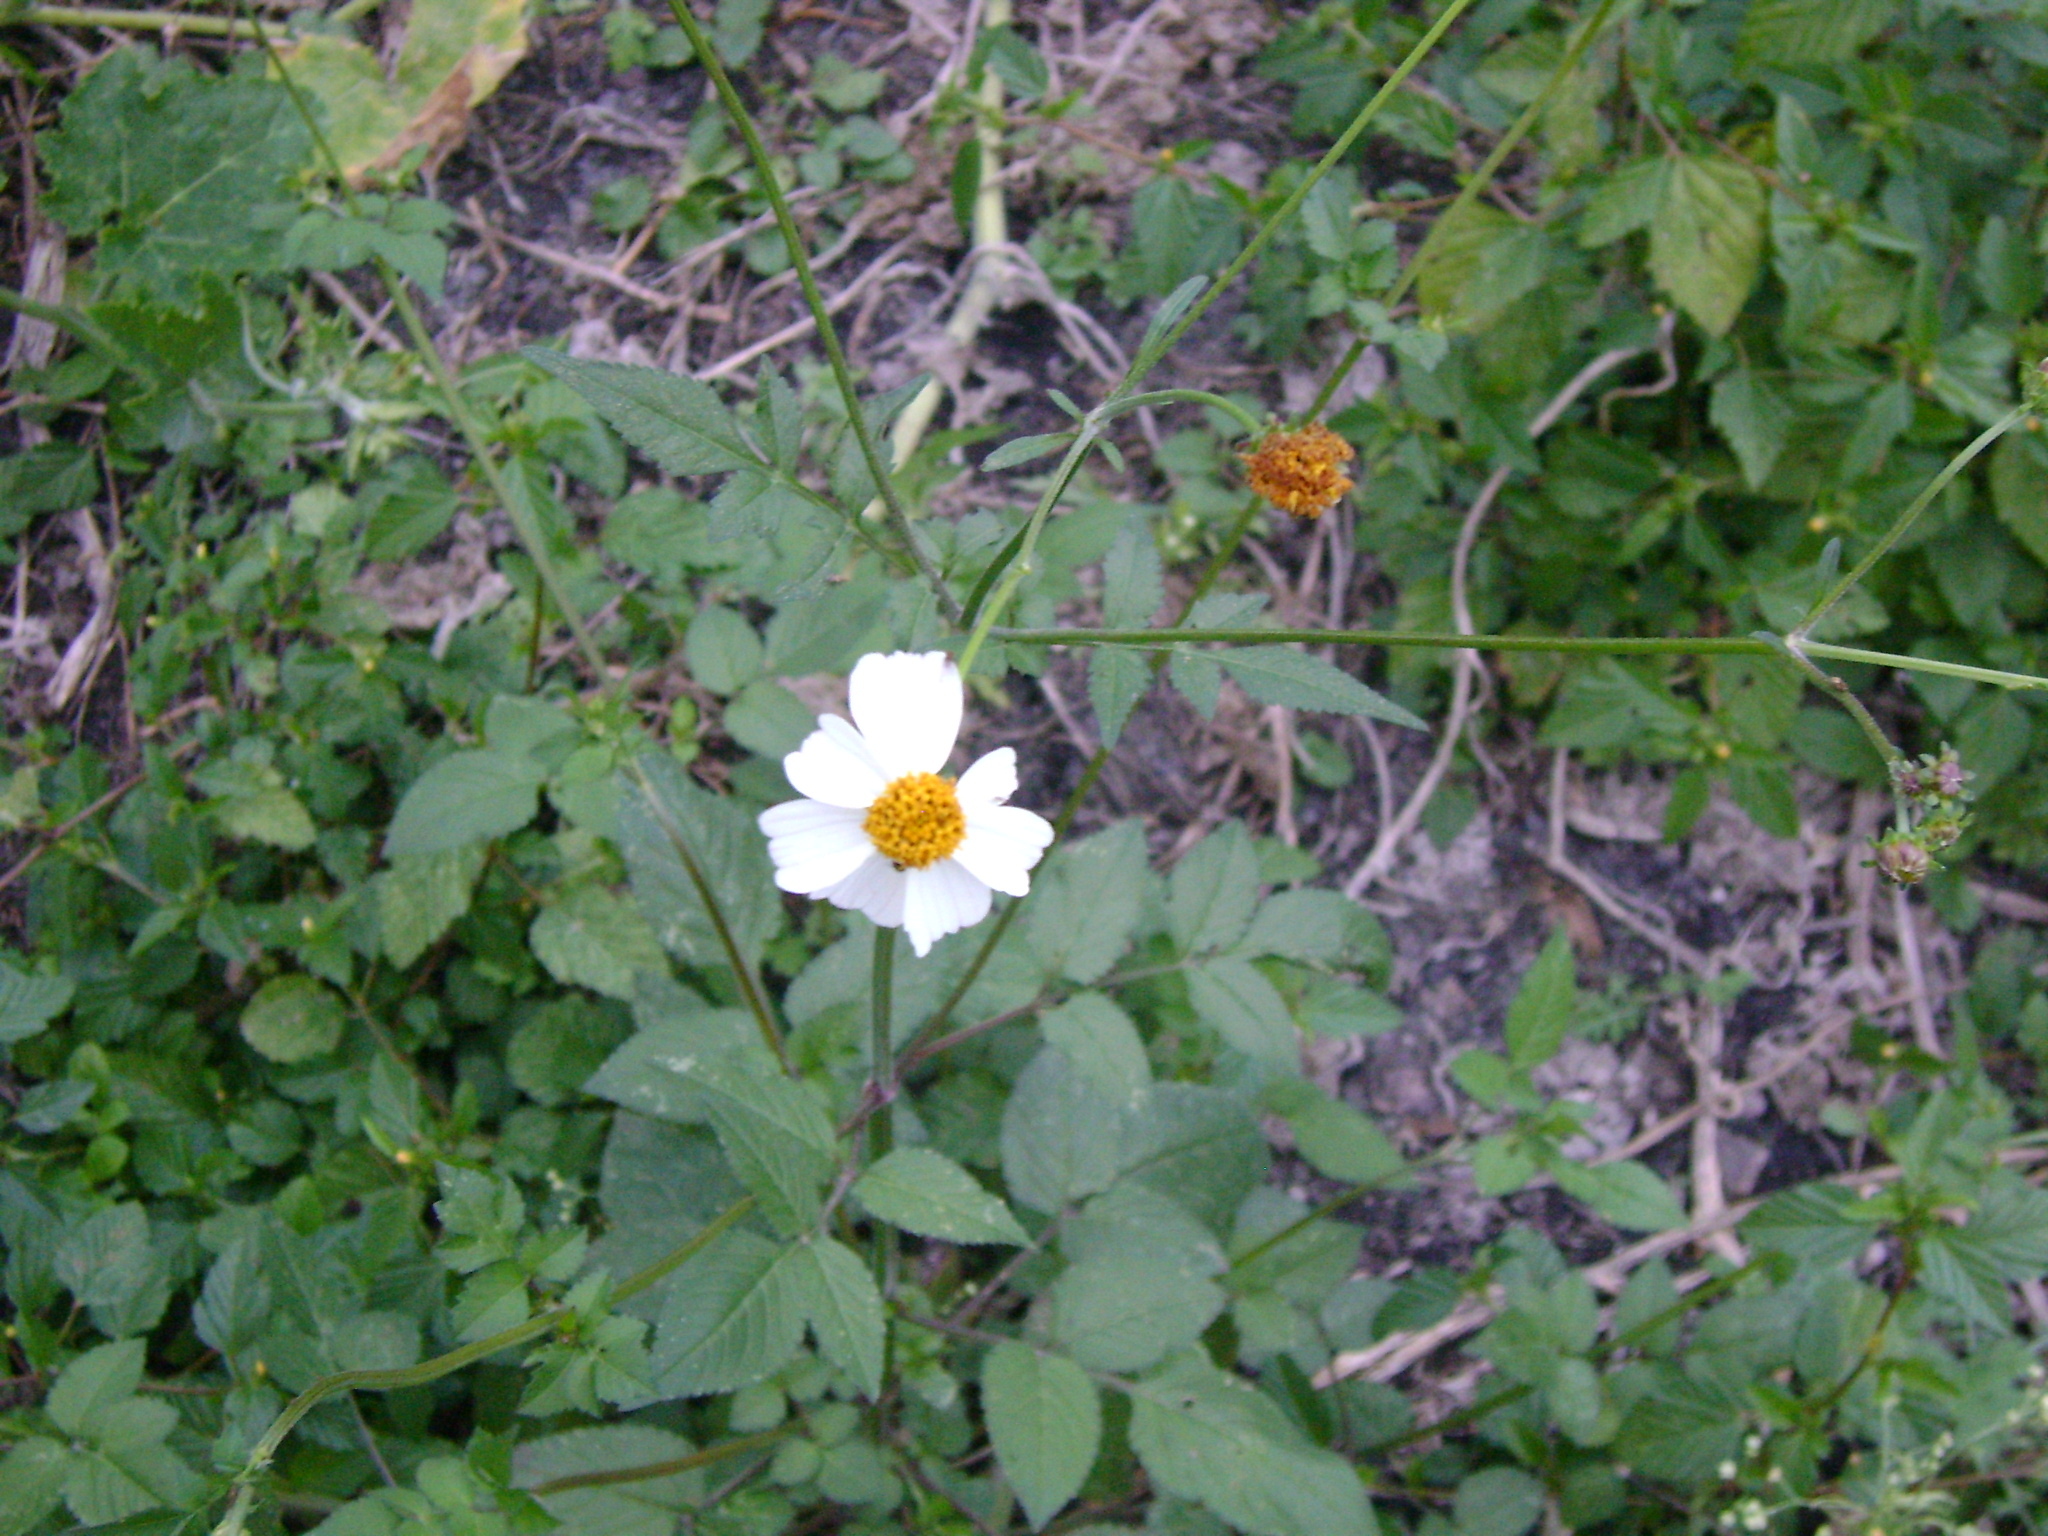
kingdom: Plantae
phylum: Tracheophyta
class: Magnoliopsida
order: Asterales
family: Asteraceae
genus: Bidens
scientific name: Bidens alba
